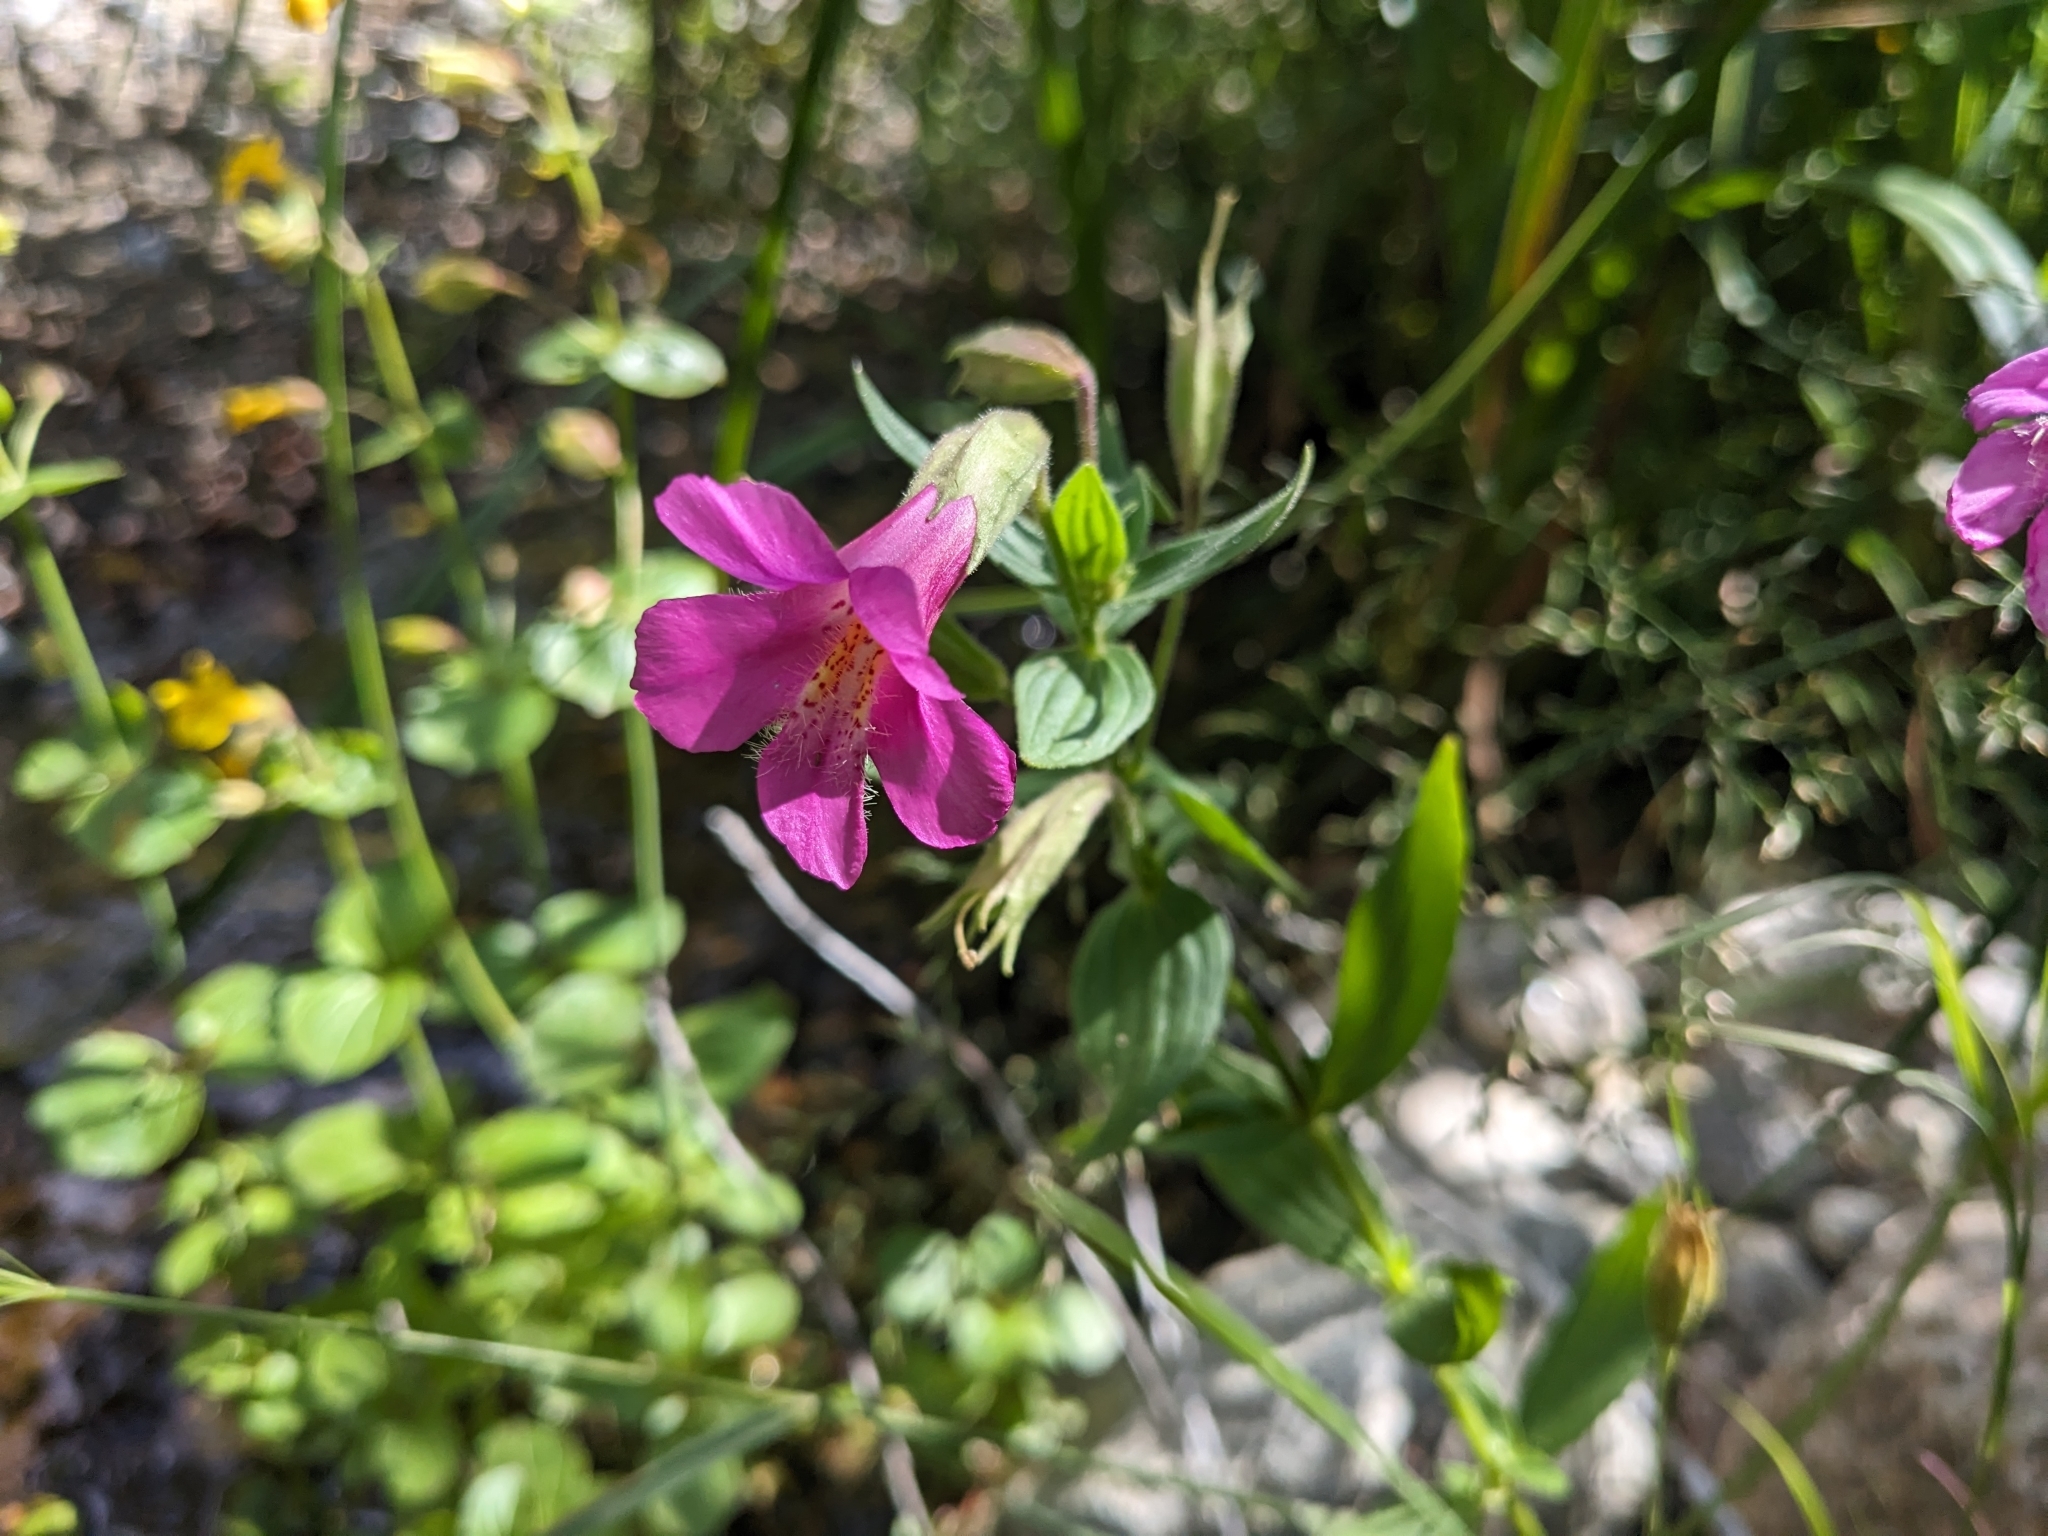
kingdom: Plantae
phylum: Tracheophyta
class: Magnoliopsida
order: Lamiales
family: Phrymaceae
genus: Erythranthe
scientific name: Erythranthe lewisii
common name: Lewis's monkey-flower
